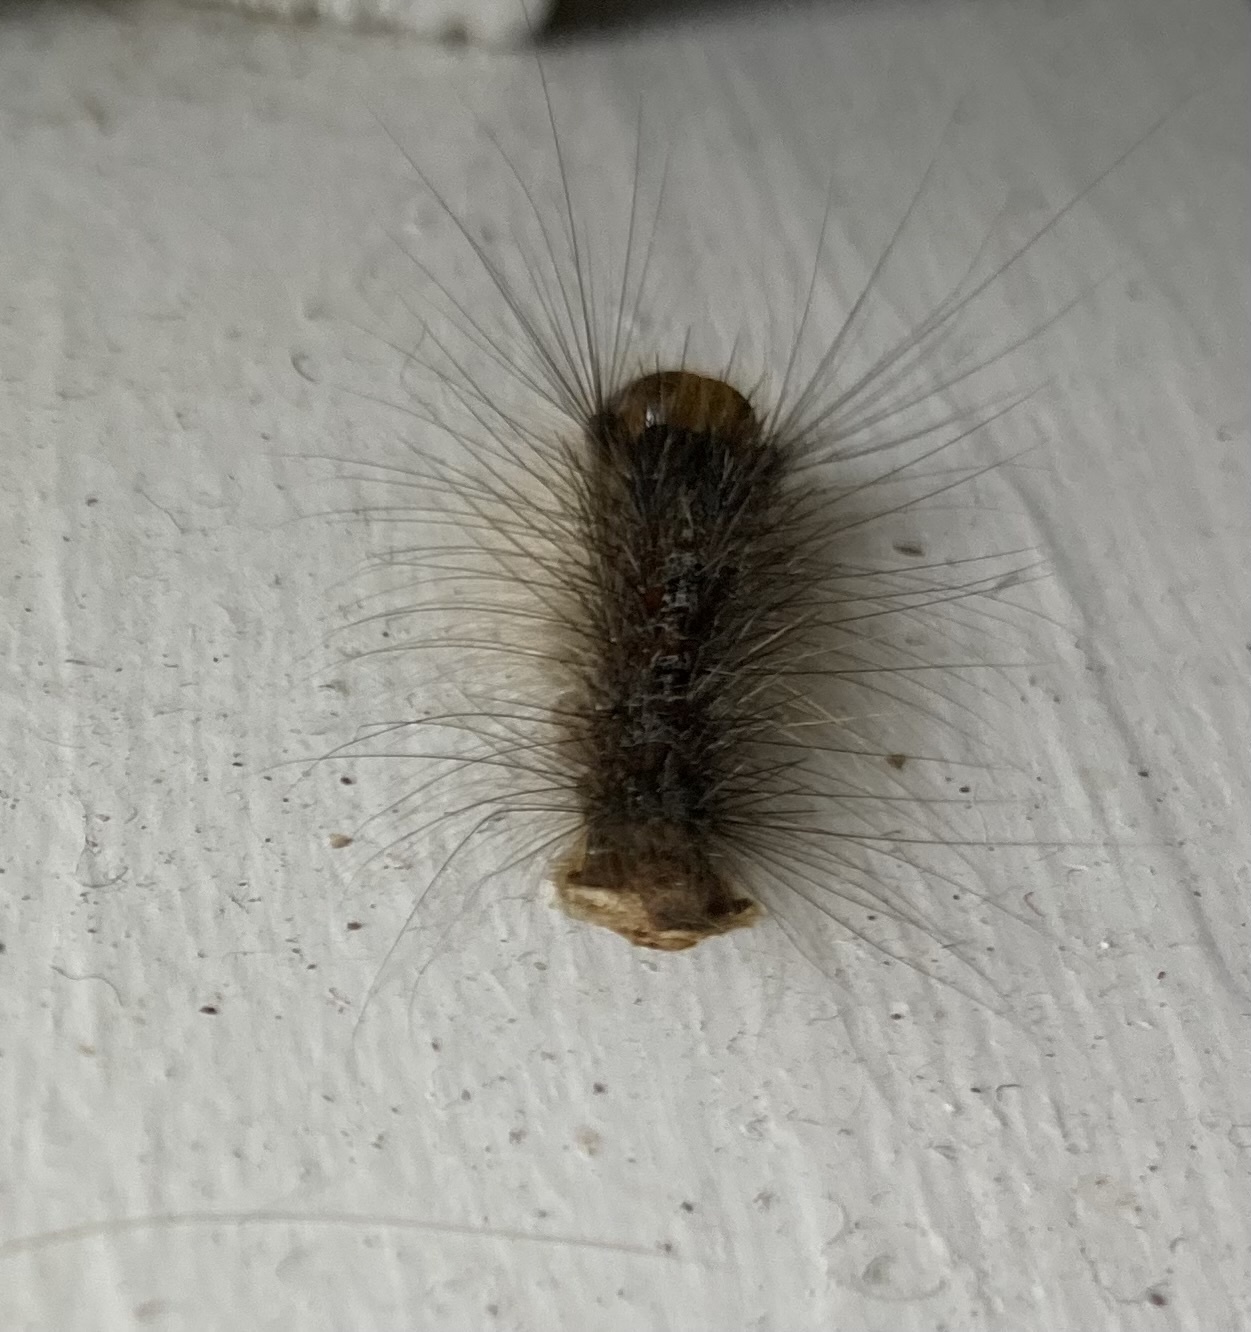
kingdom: Animalia
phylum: Arthropoda
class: Insecta
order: Lepidoptera
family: Erebidae
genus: Lymantria
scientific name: Lymantria dispar
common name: Gypsy moth
